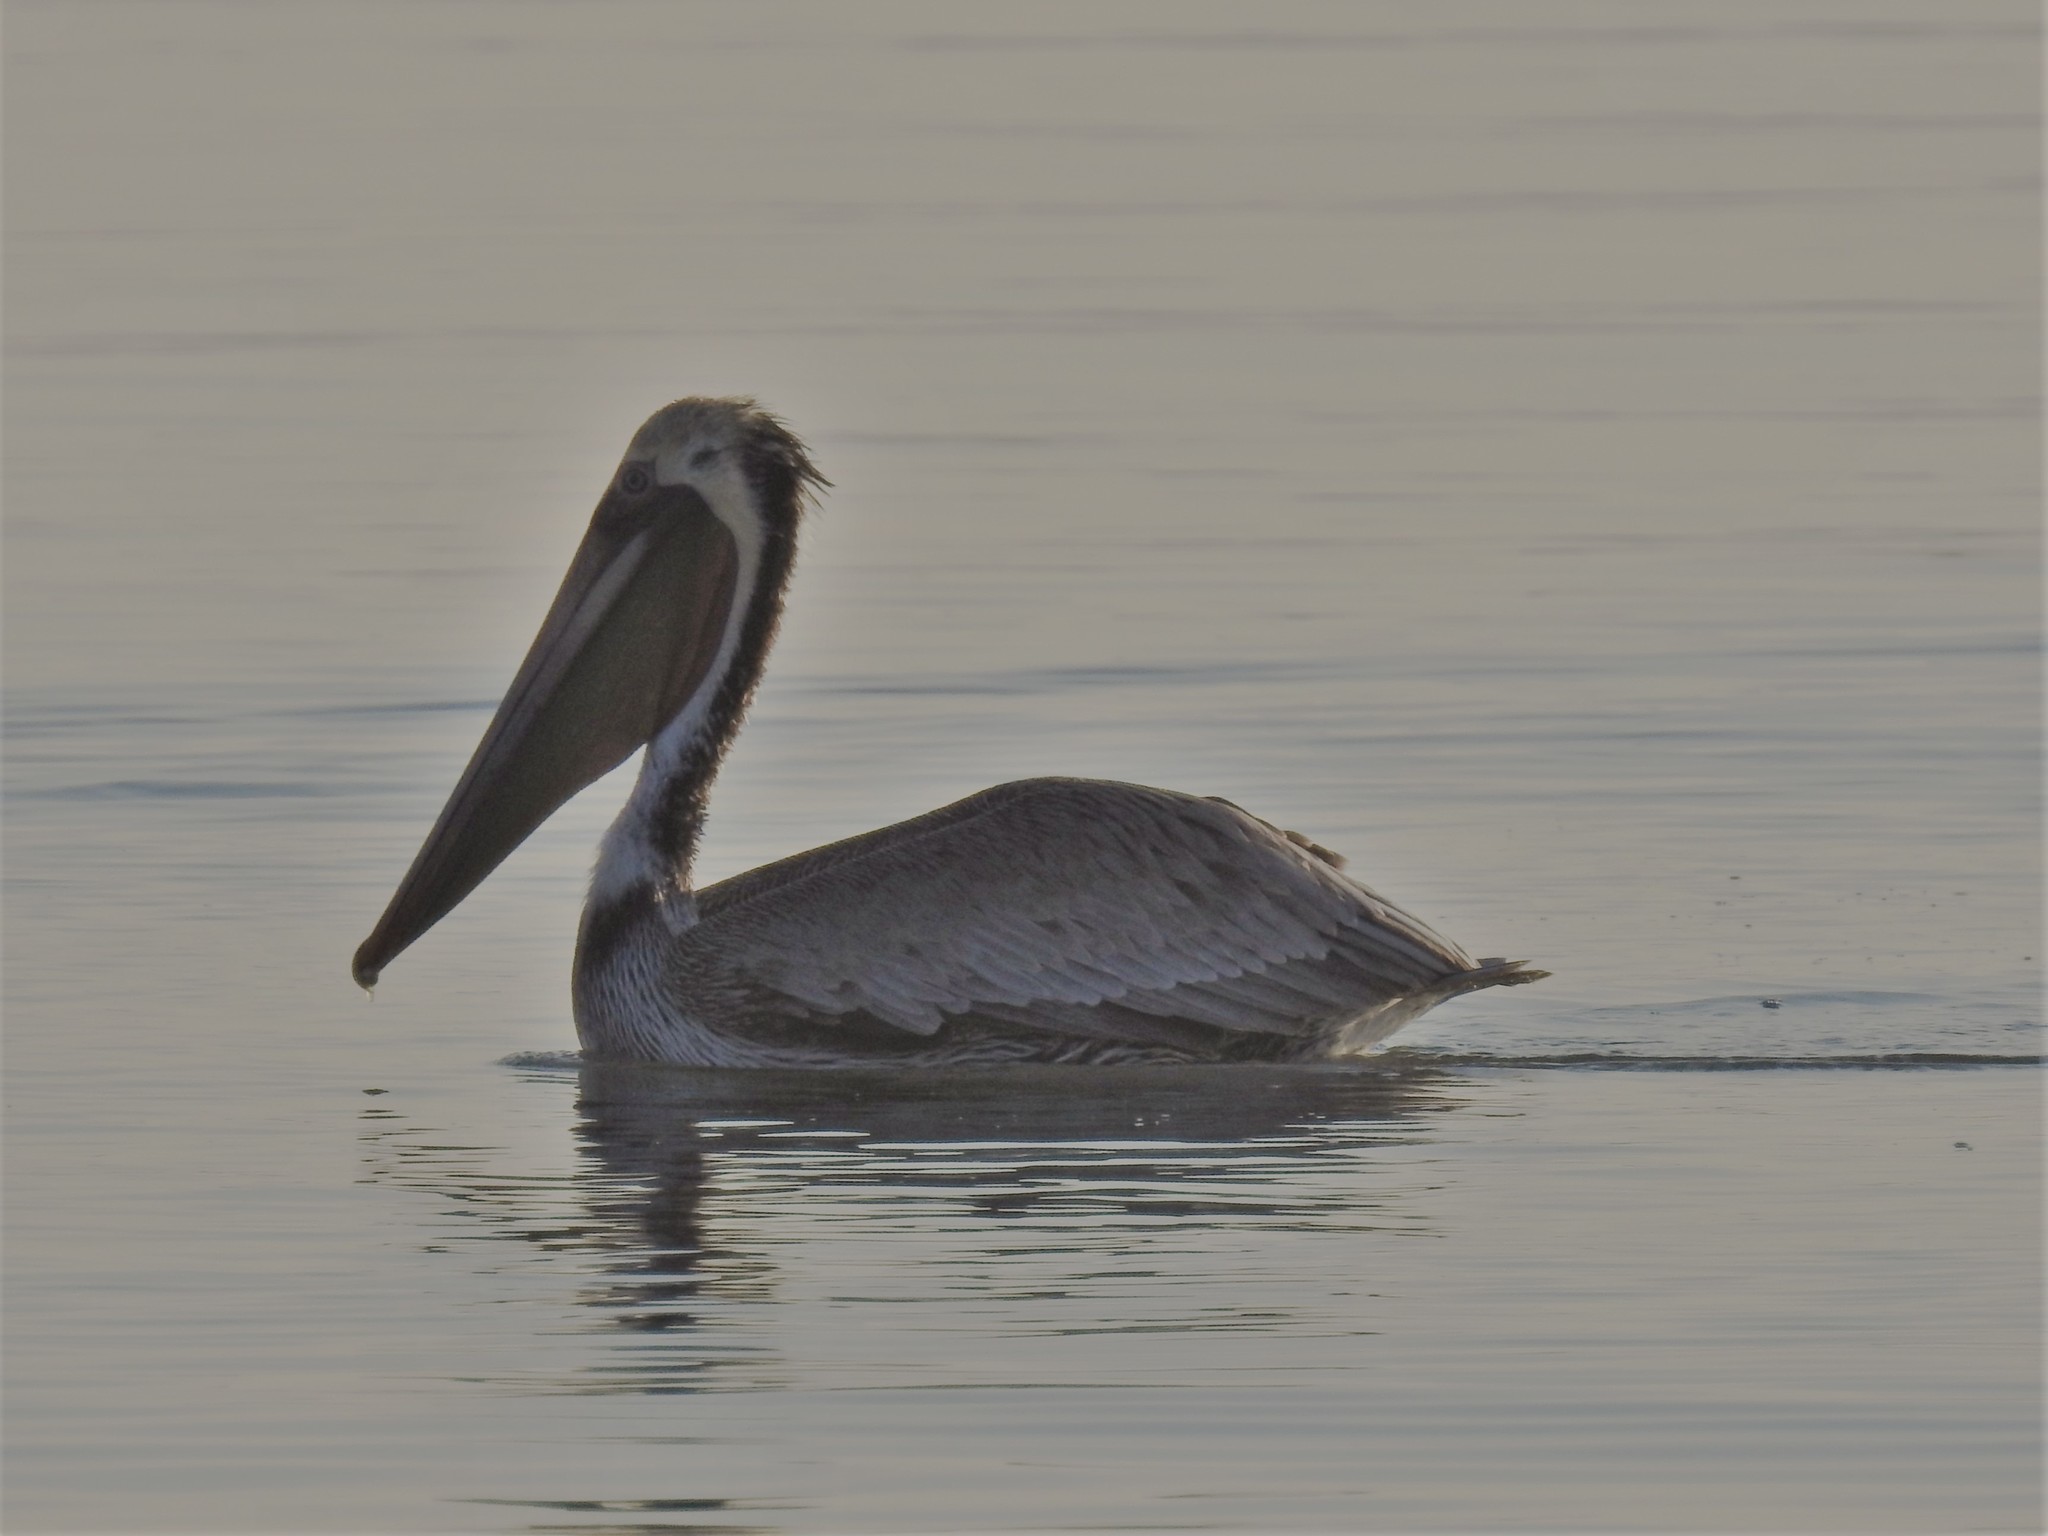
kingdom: Animalia
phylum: Chordata
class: Aves
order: Pelecaniformes
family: Pelecanidae
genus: Pelecanus
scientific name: Pelecanus occidentalis
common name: Brown pelican
